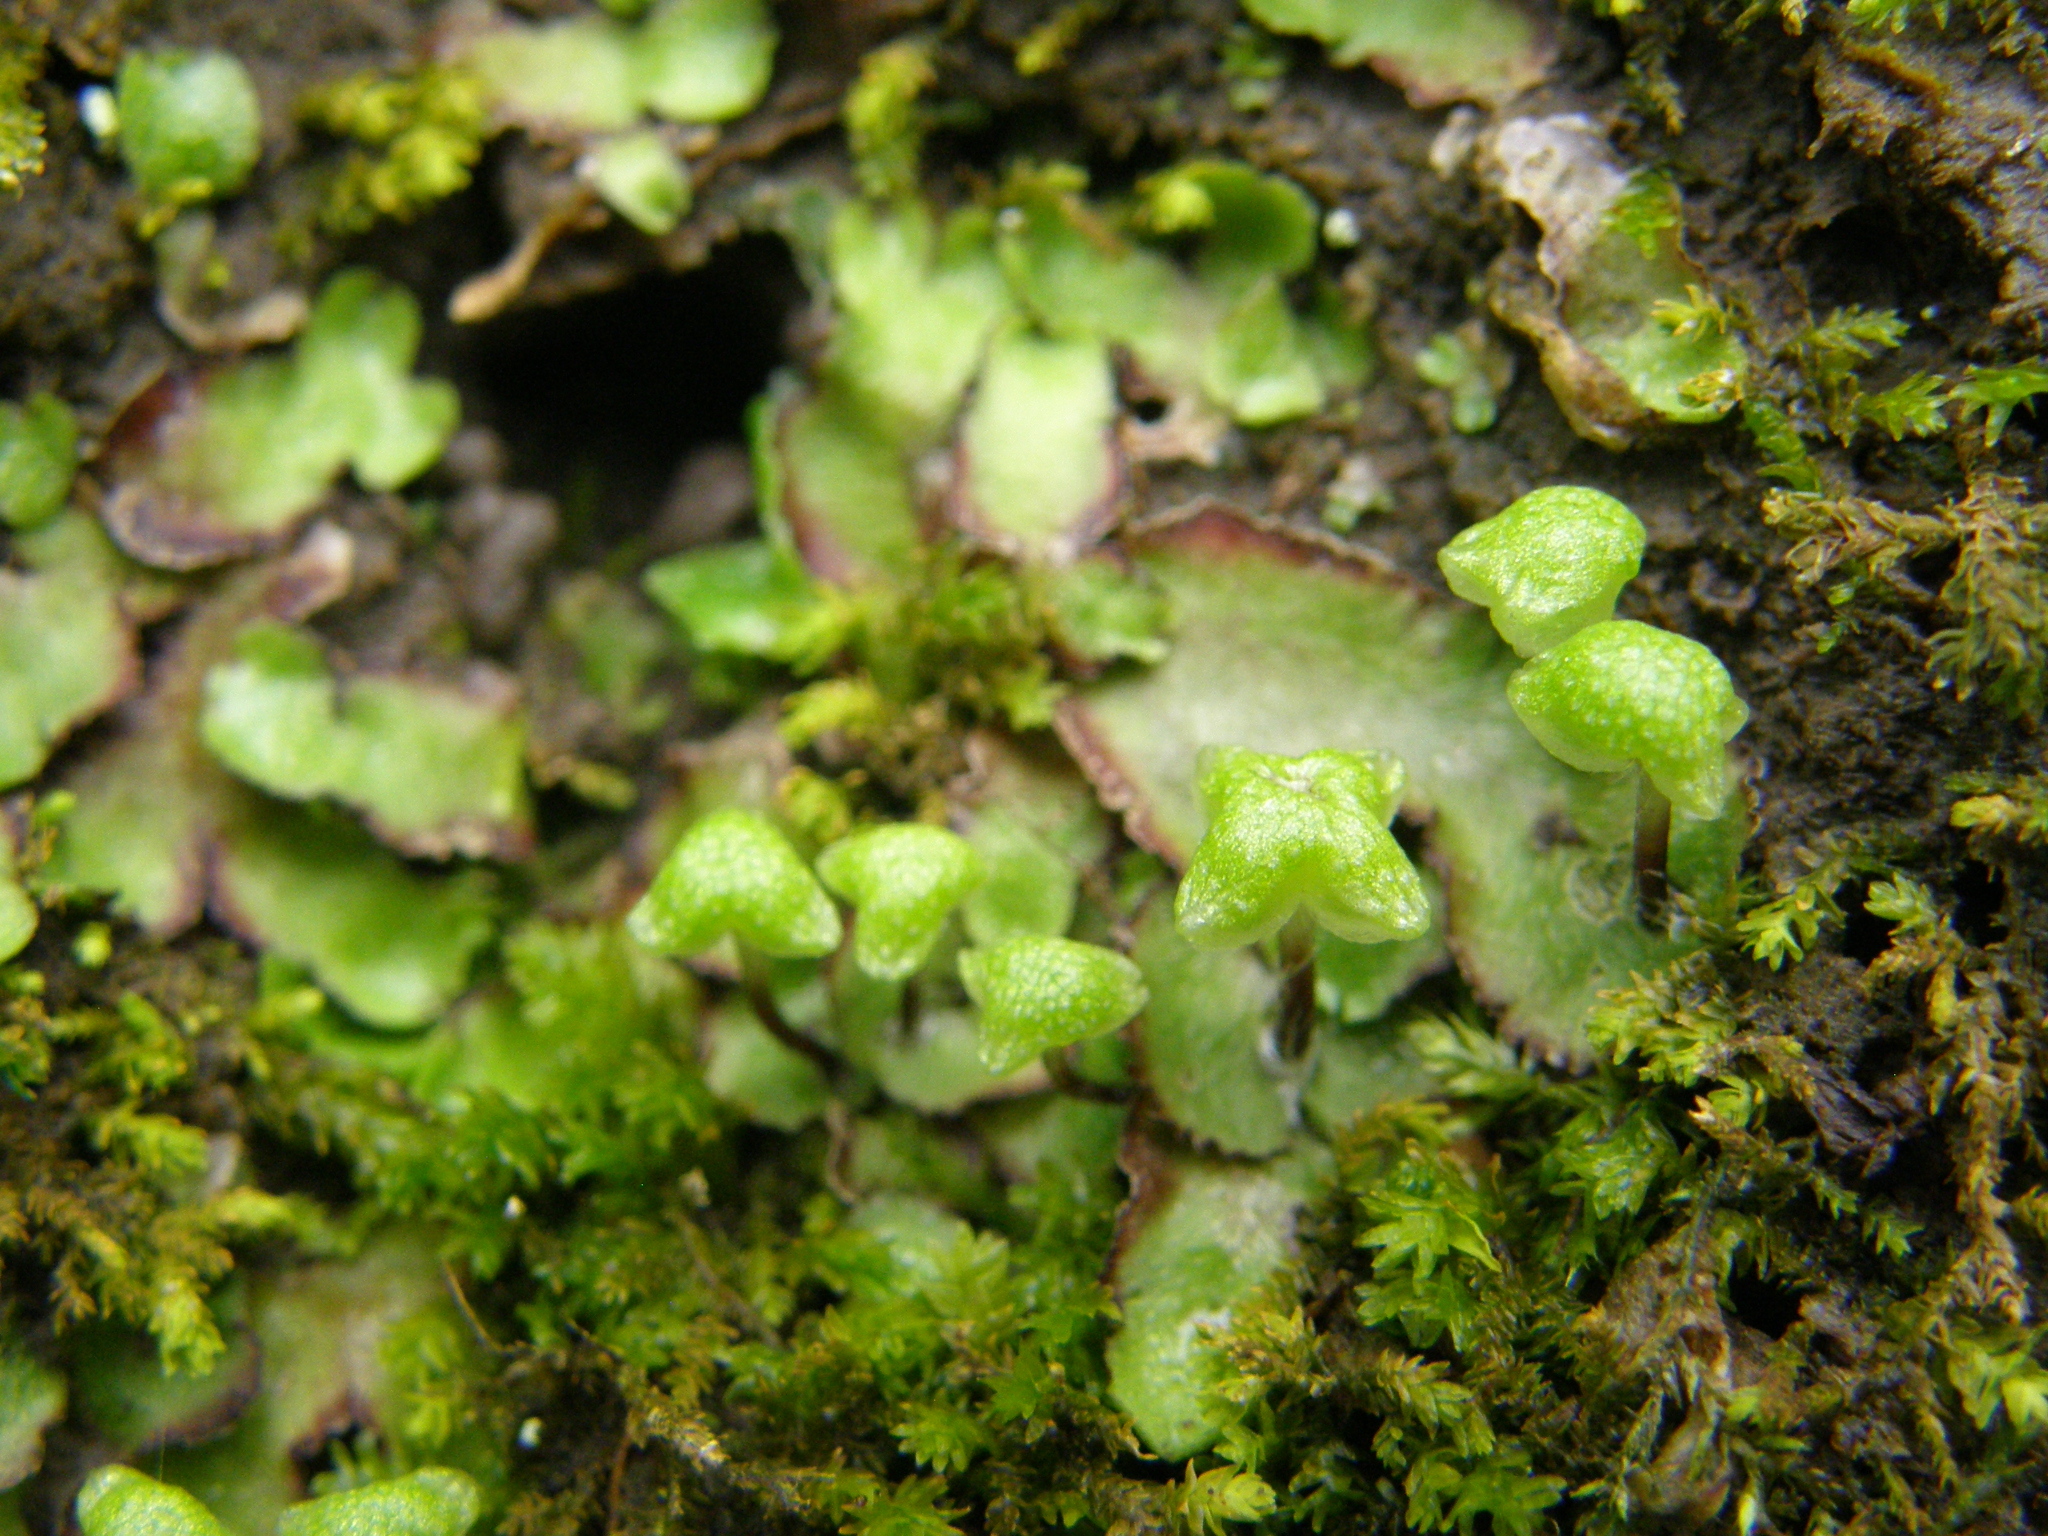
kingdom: Plantae
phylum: Marchantiophyta
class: Marchantiopsida
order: Marchantiales
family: Marchantiaceae
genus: Marchantia
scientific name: Marchantia quadrata
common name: Narrow mushroom-headed liverwort
